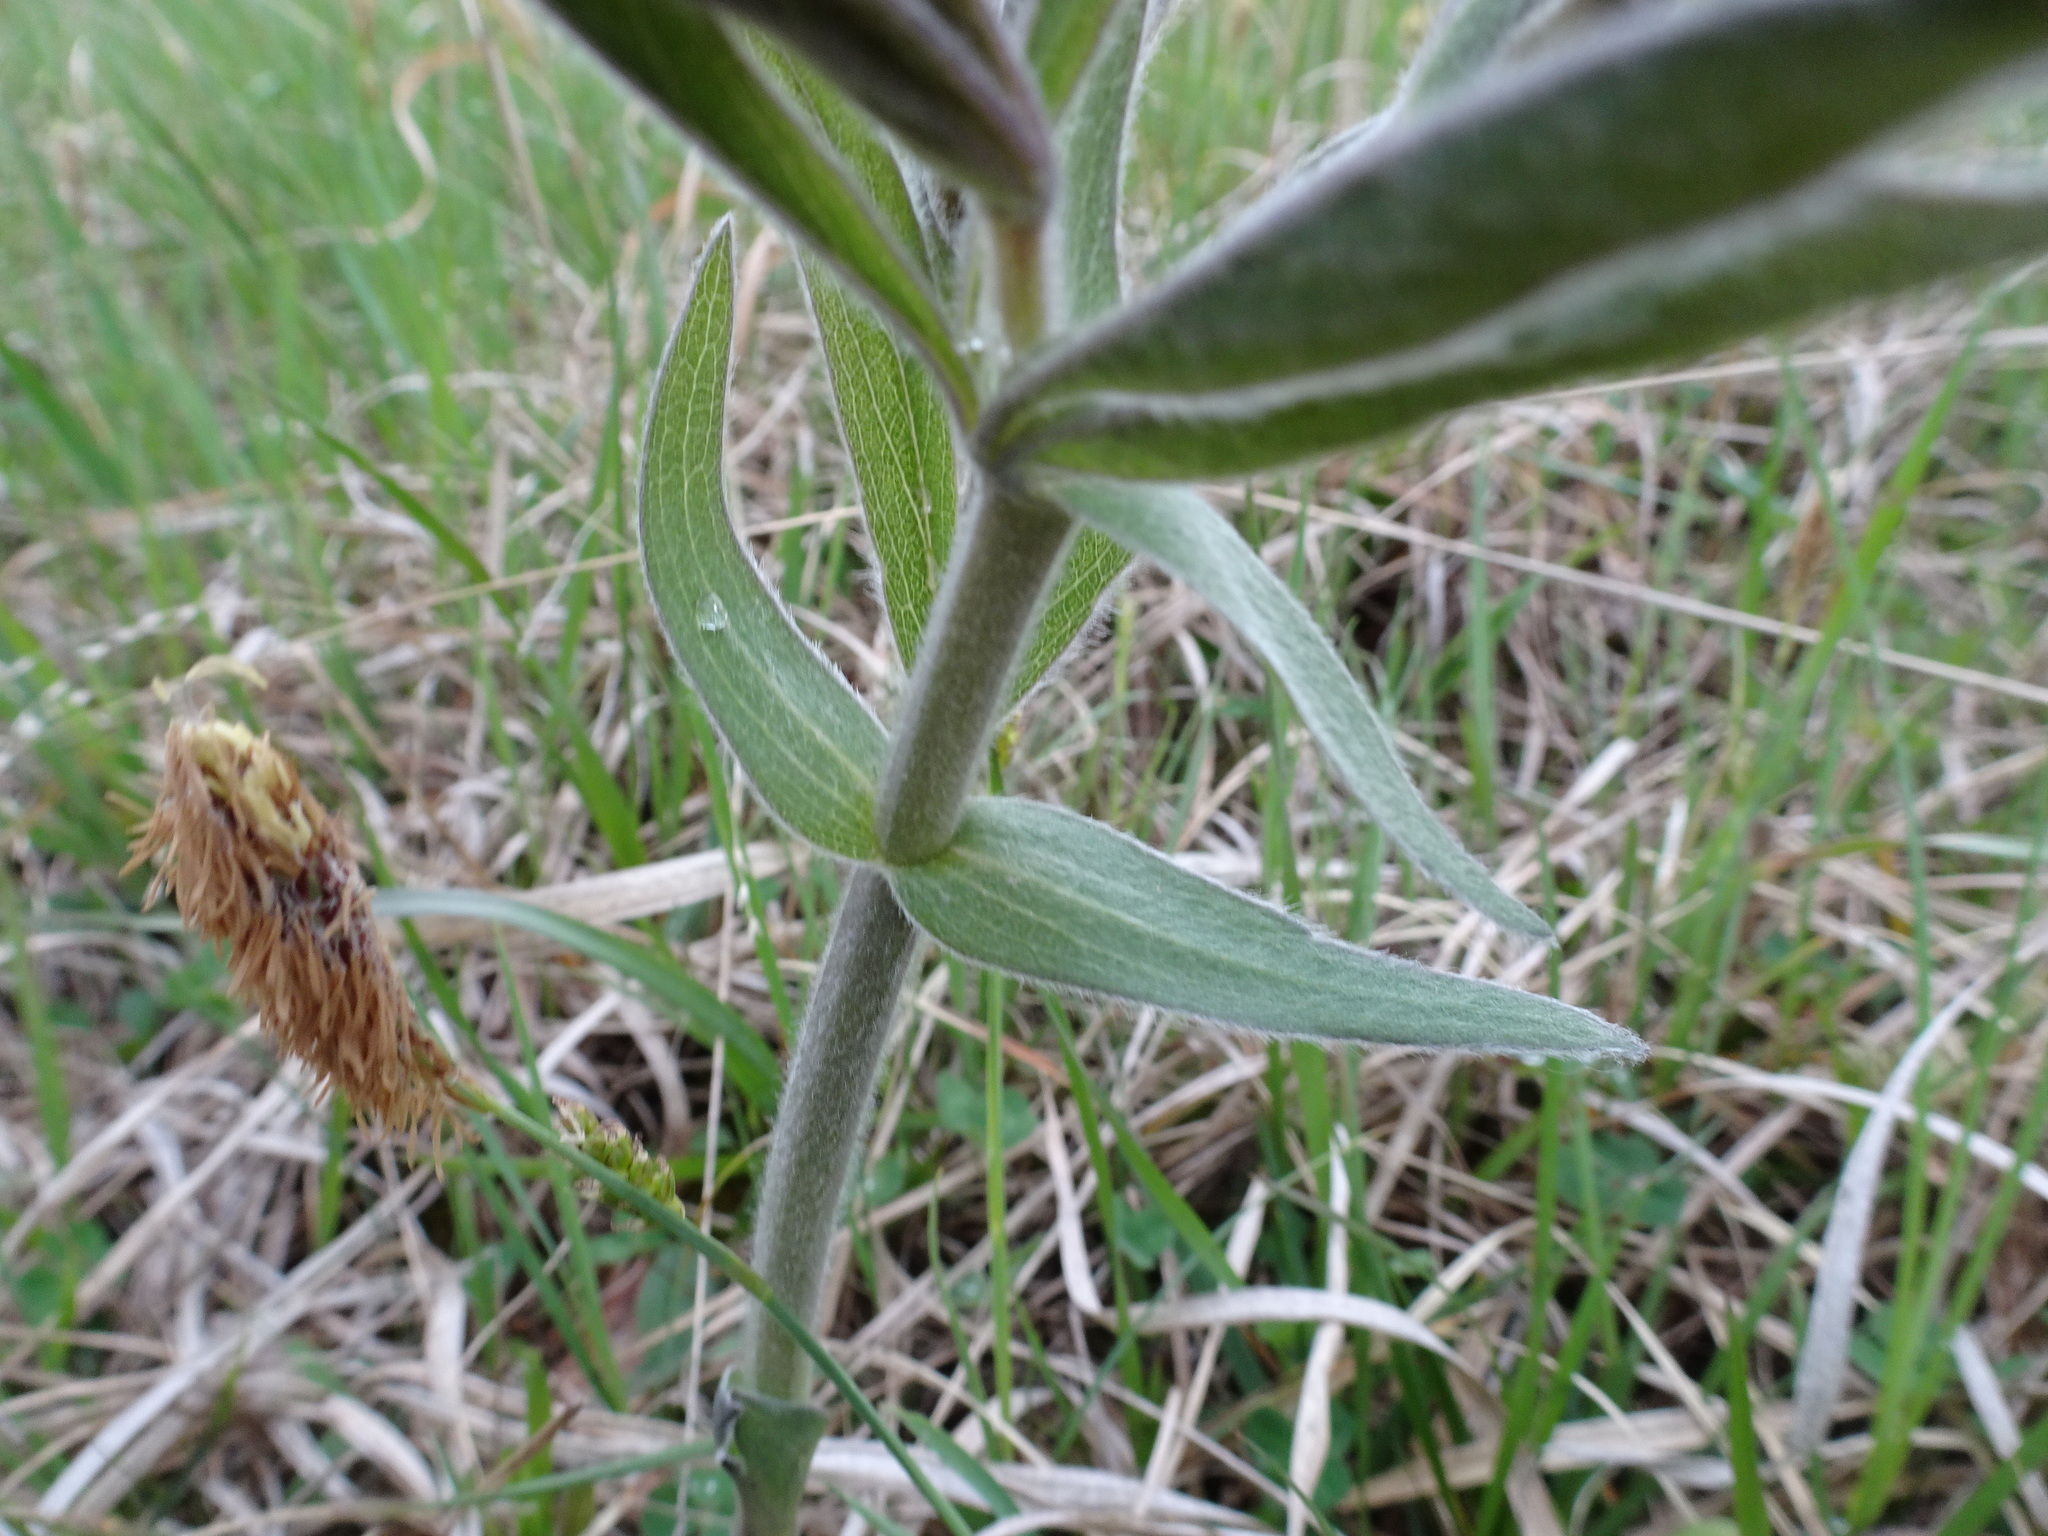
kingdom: Plantae
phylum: Tracheophyta
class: Magnoliopsida
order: Fabales
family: Fabaceae
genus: Baptisia
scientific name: Baptisia bracteata
